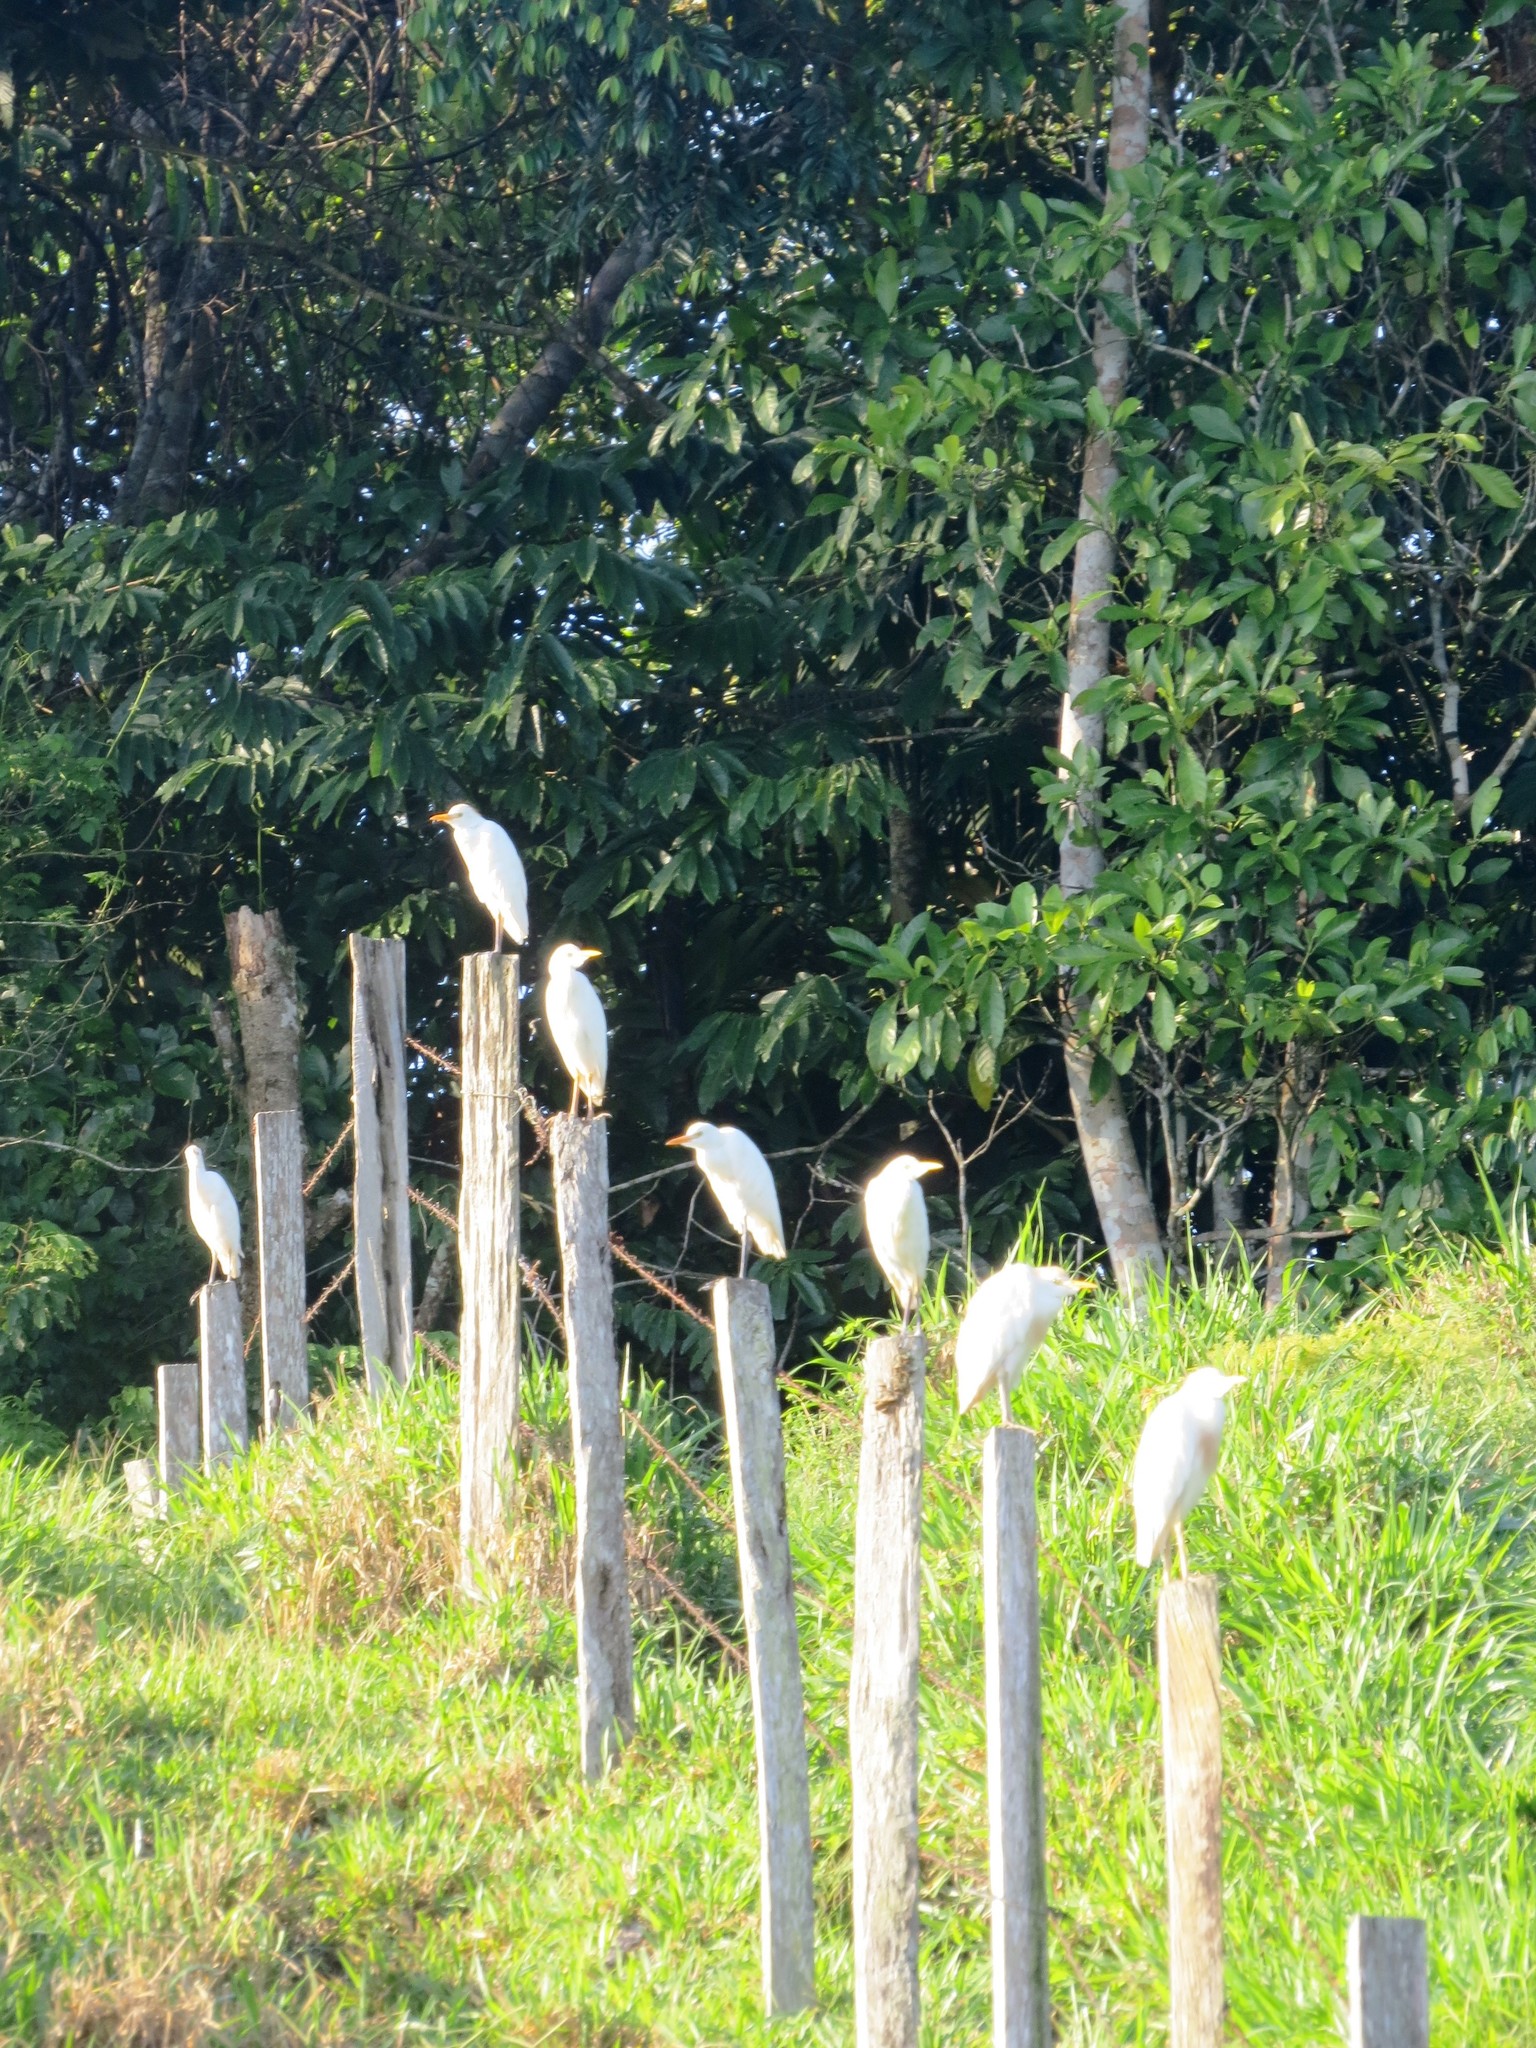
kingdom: Animalia
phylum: Chordata
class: Aves
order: Pelecaniformes
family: Ardeidae
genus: Bubulcus
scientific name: Bubulcus ibis
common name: Cattle egret
